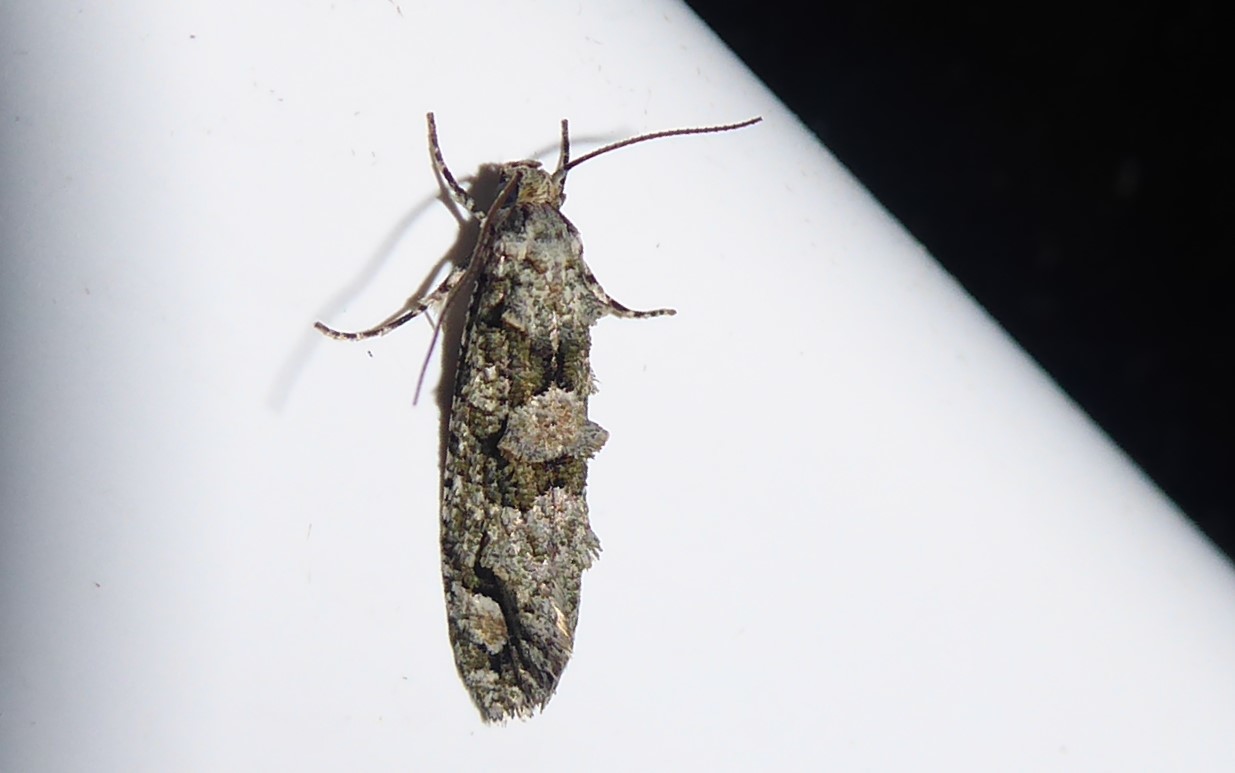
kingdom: Animalia
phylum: Arthropoda
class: Insecta
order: Lepidoptera
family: Tineidae
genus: Lysiphragma
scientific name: Lysiphragma howesii
